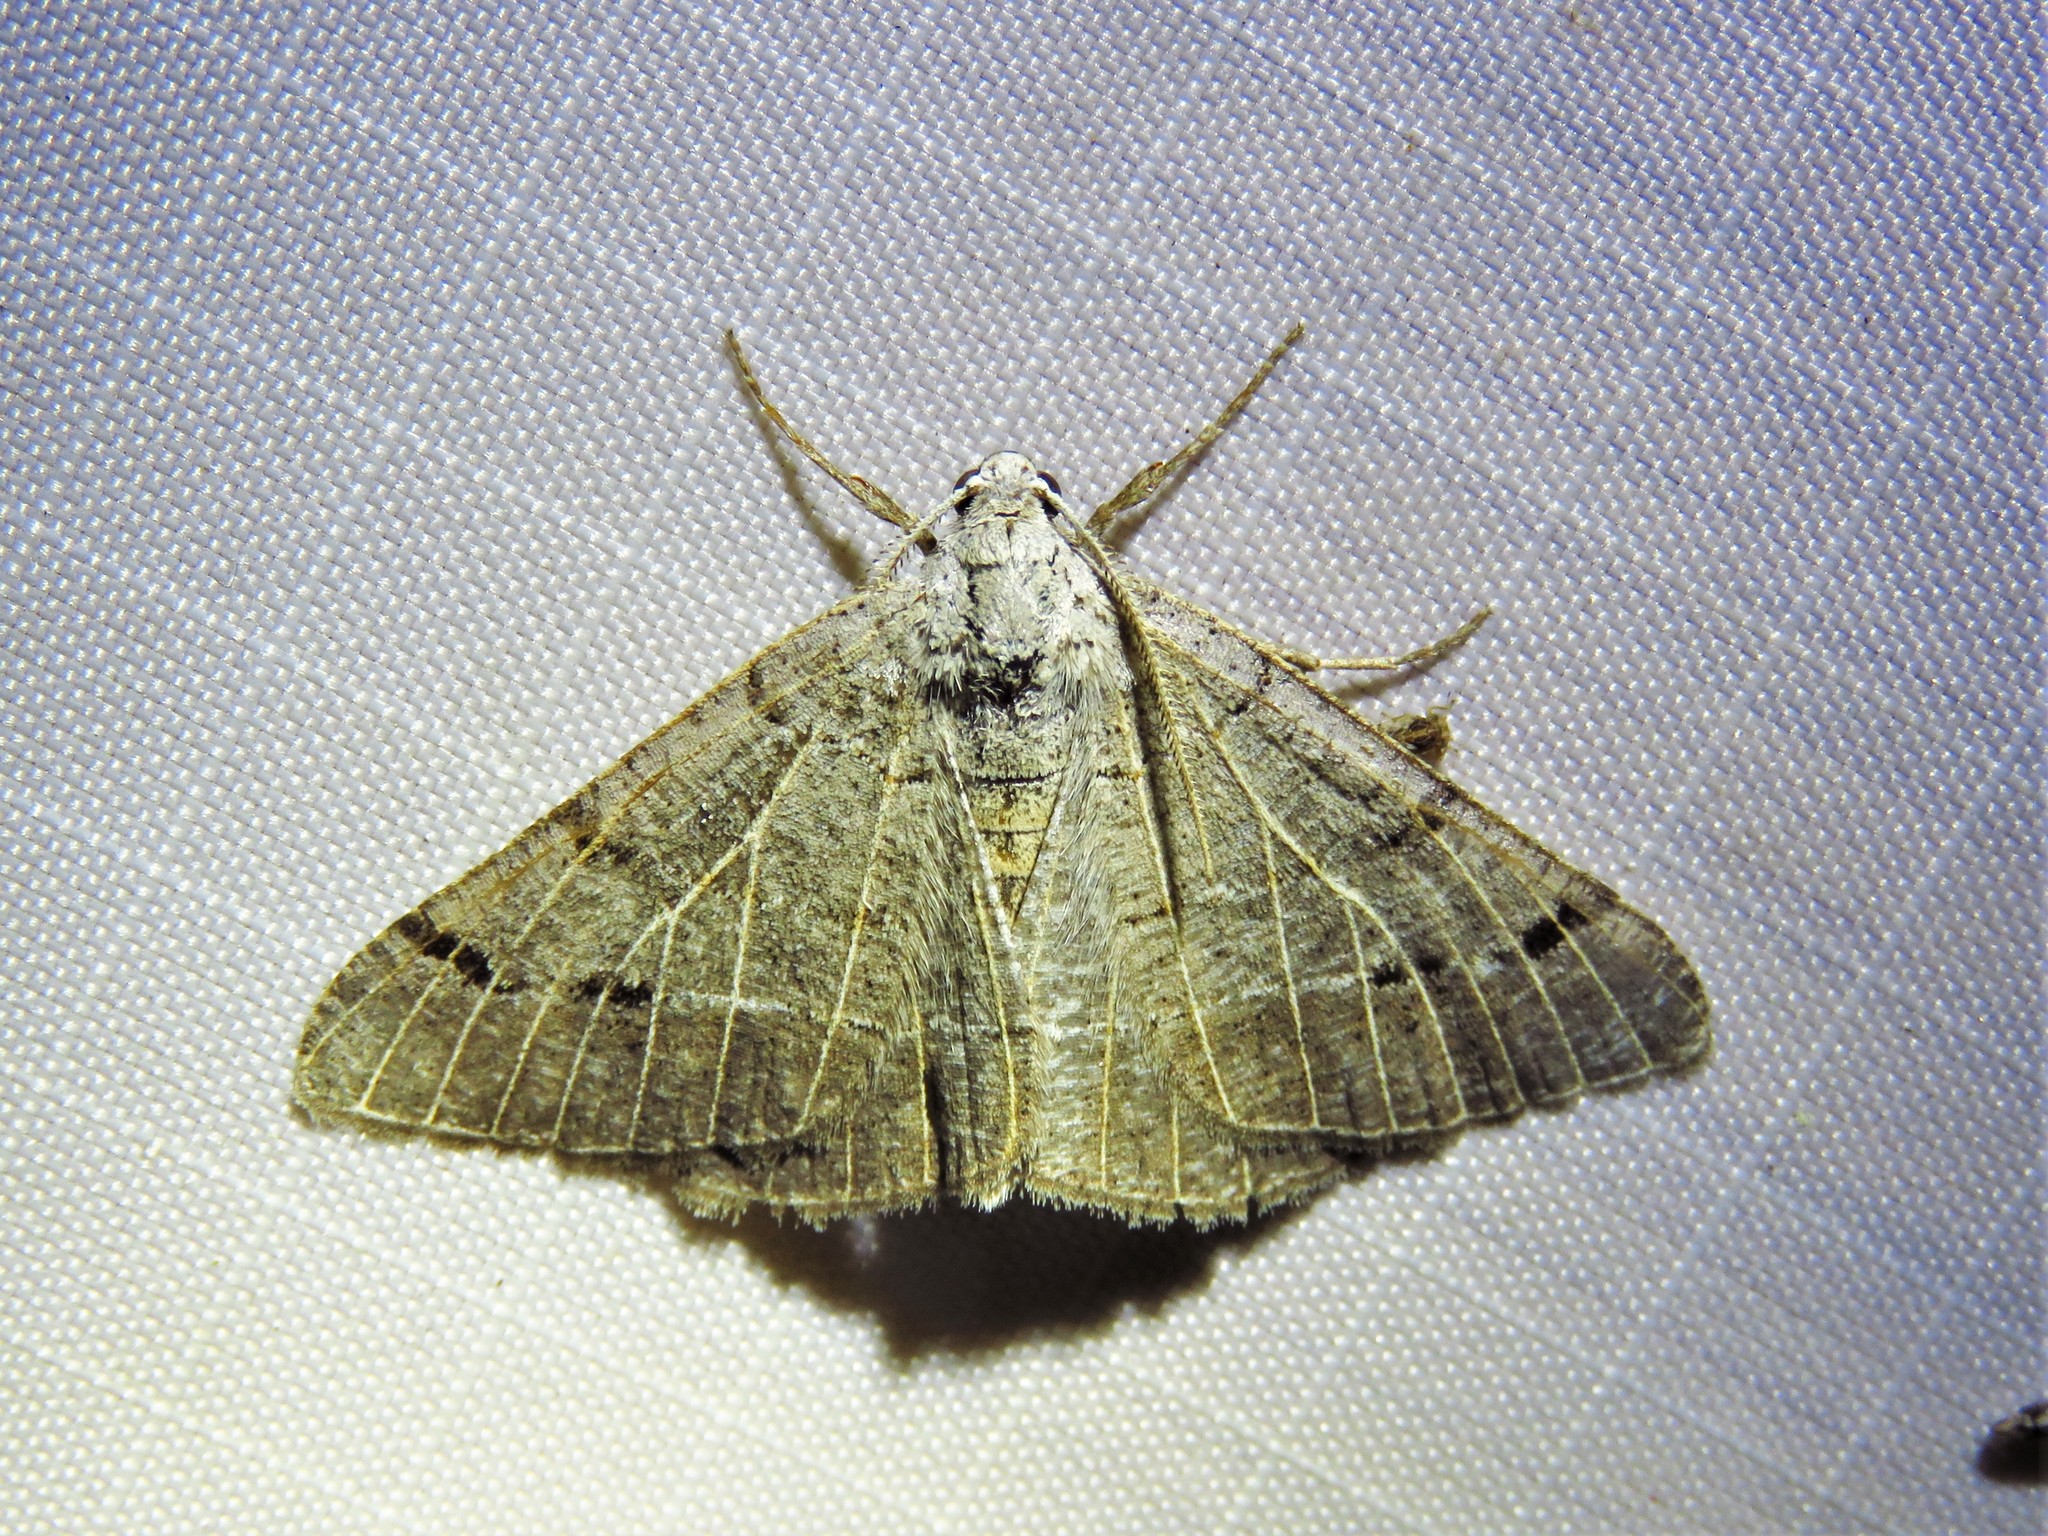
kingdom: Animalia
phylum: Arthropoda
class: Insecta
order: Lepidoptera
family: Geometridae
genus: Isturgia
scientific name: Isturgia dislocaria
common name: Pale-viened enconista
